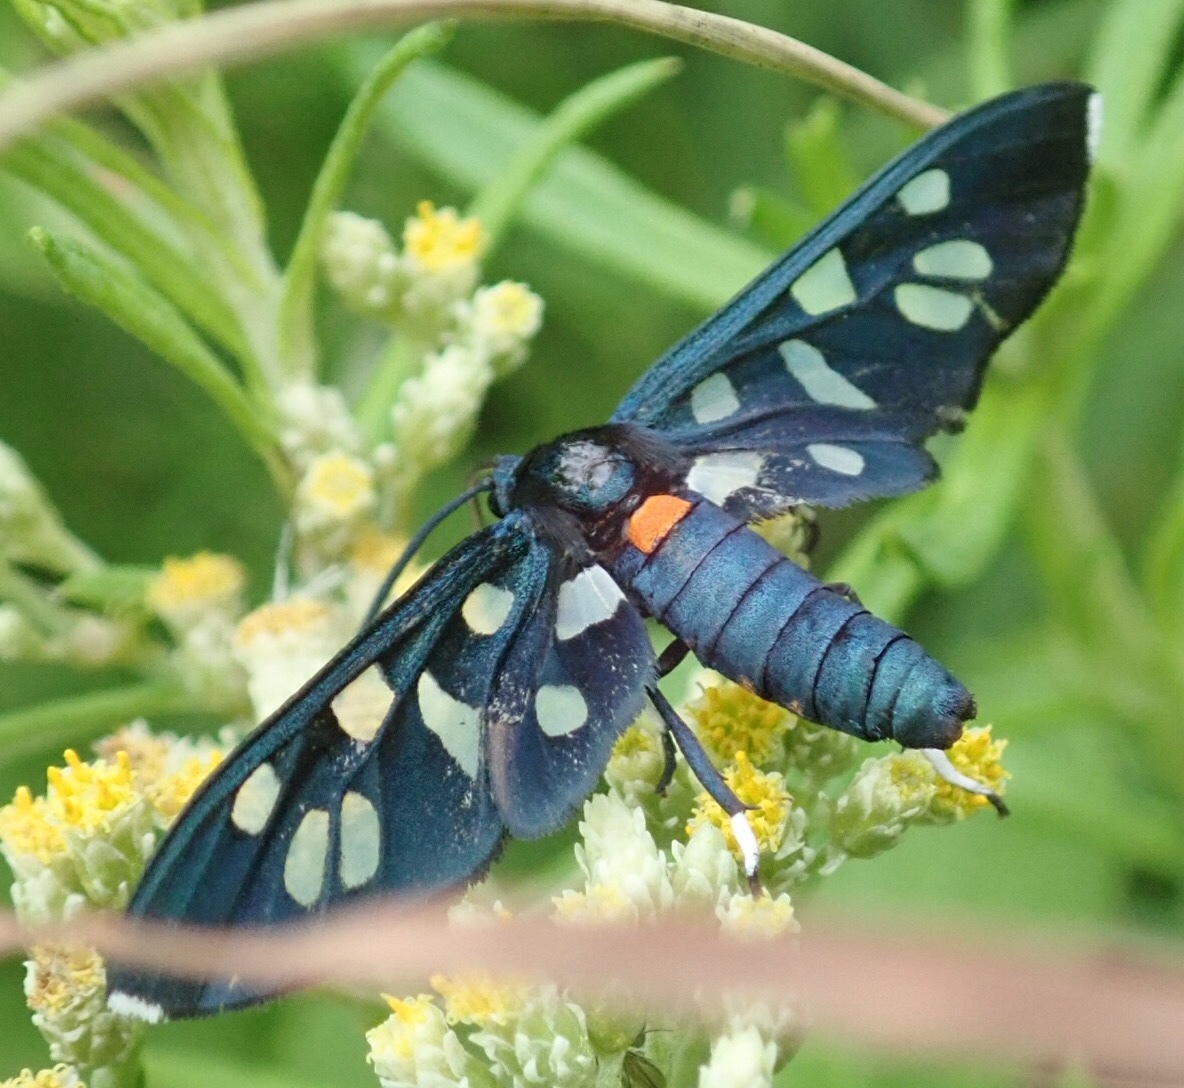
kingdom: Animalia
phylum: Arthropoda
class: Insecta
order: Lepidoptera
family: Erebidae
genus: Amata
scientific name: Amata kuhlweini
